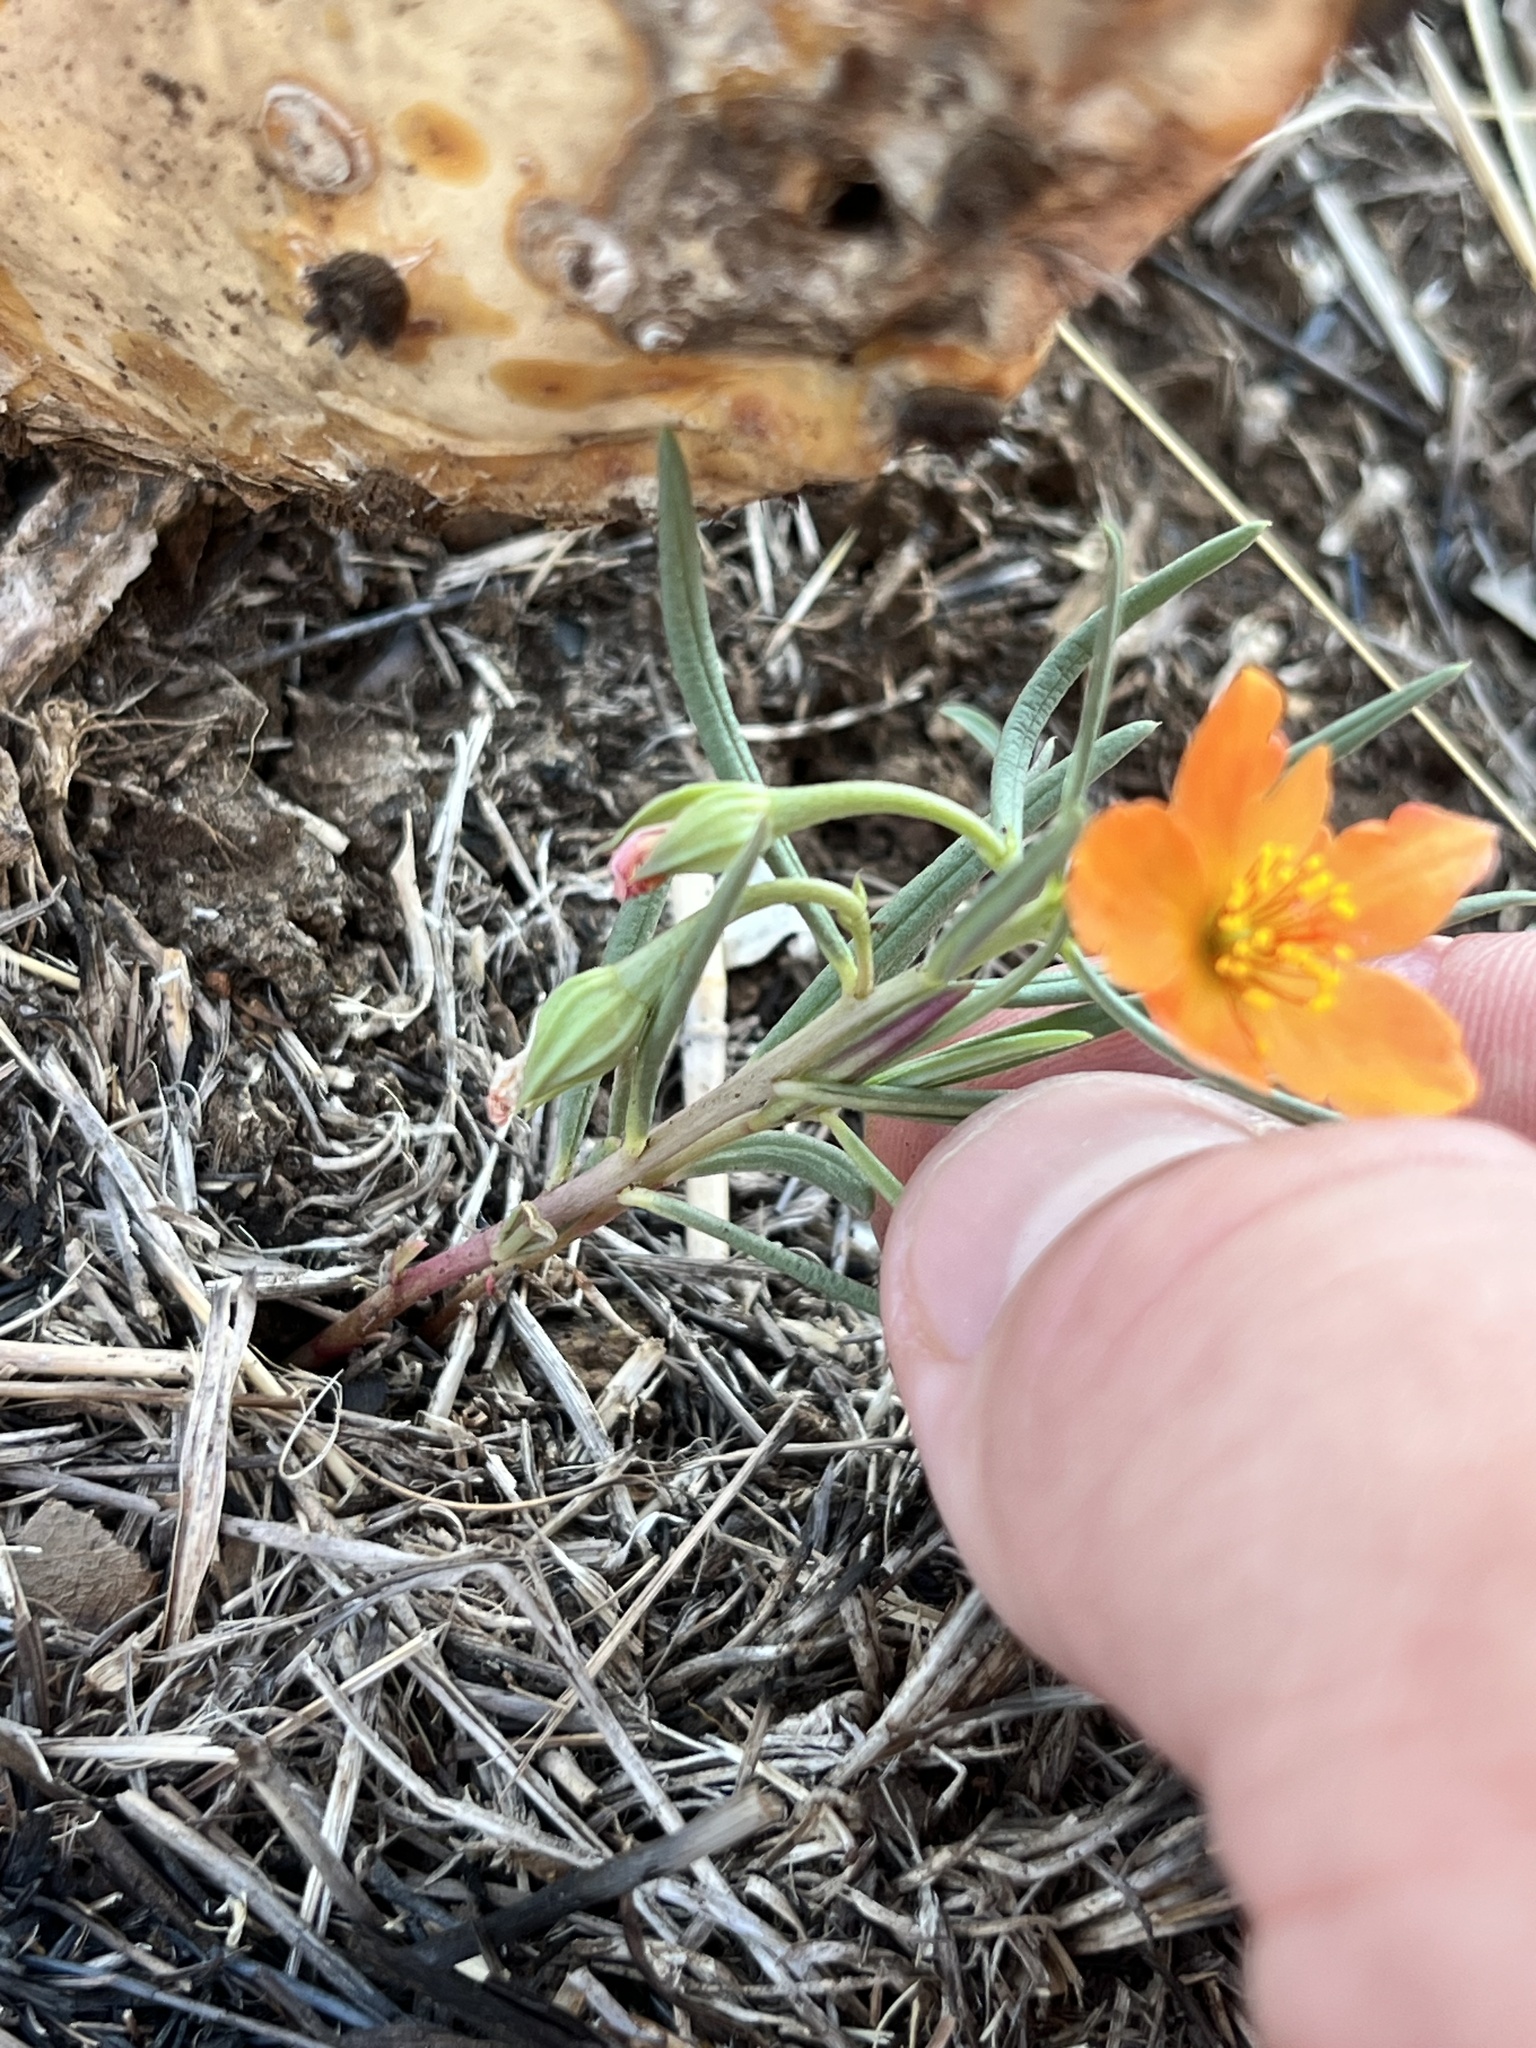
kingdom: Plantae
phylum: Tracheophyta
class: Magnoliopsida
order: Caryophyllales
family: Montiaceae
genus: Phemeranthus
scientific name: Phemeranthus aurantiacus
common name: Orange fameflower
